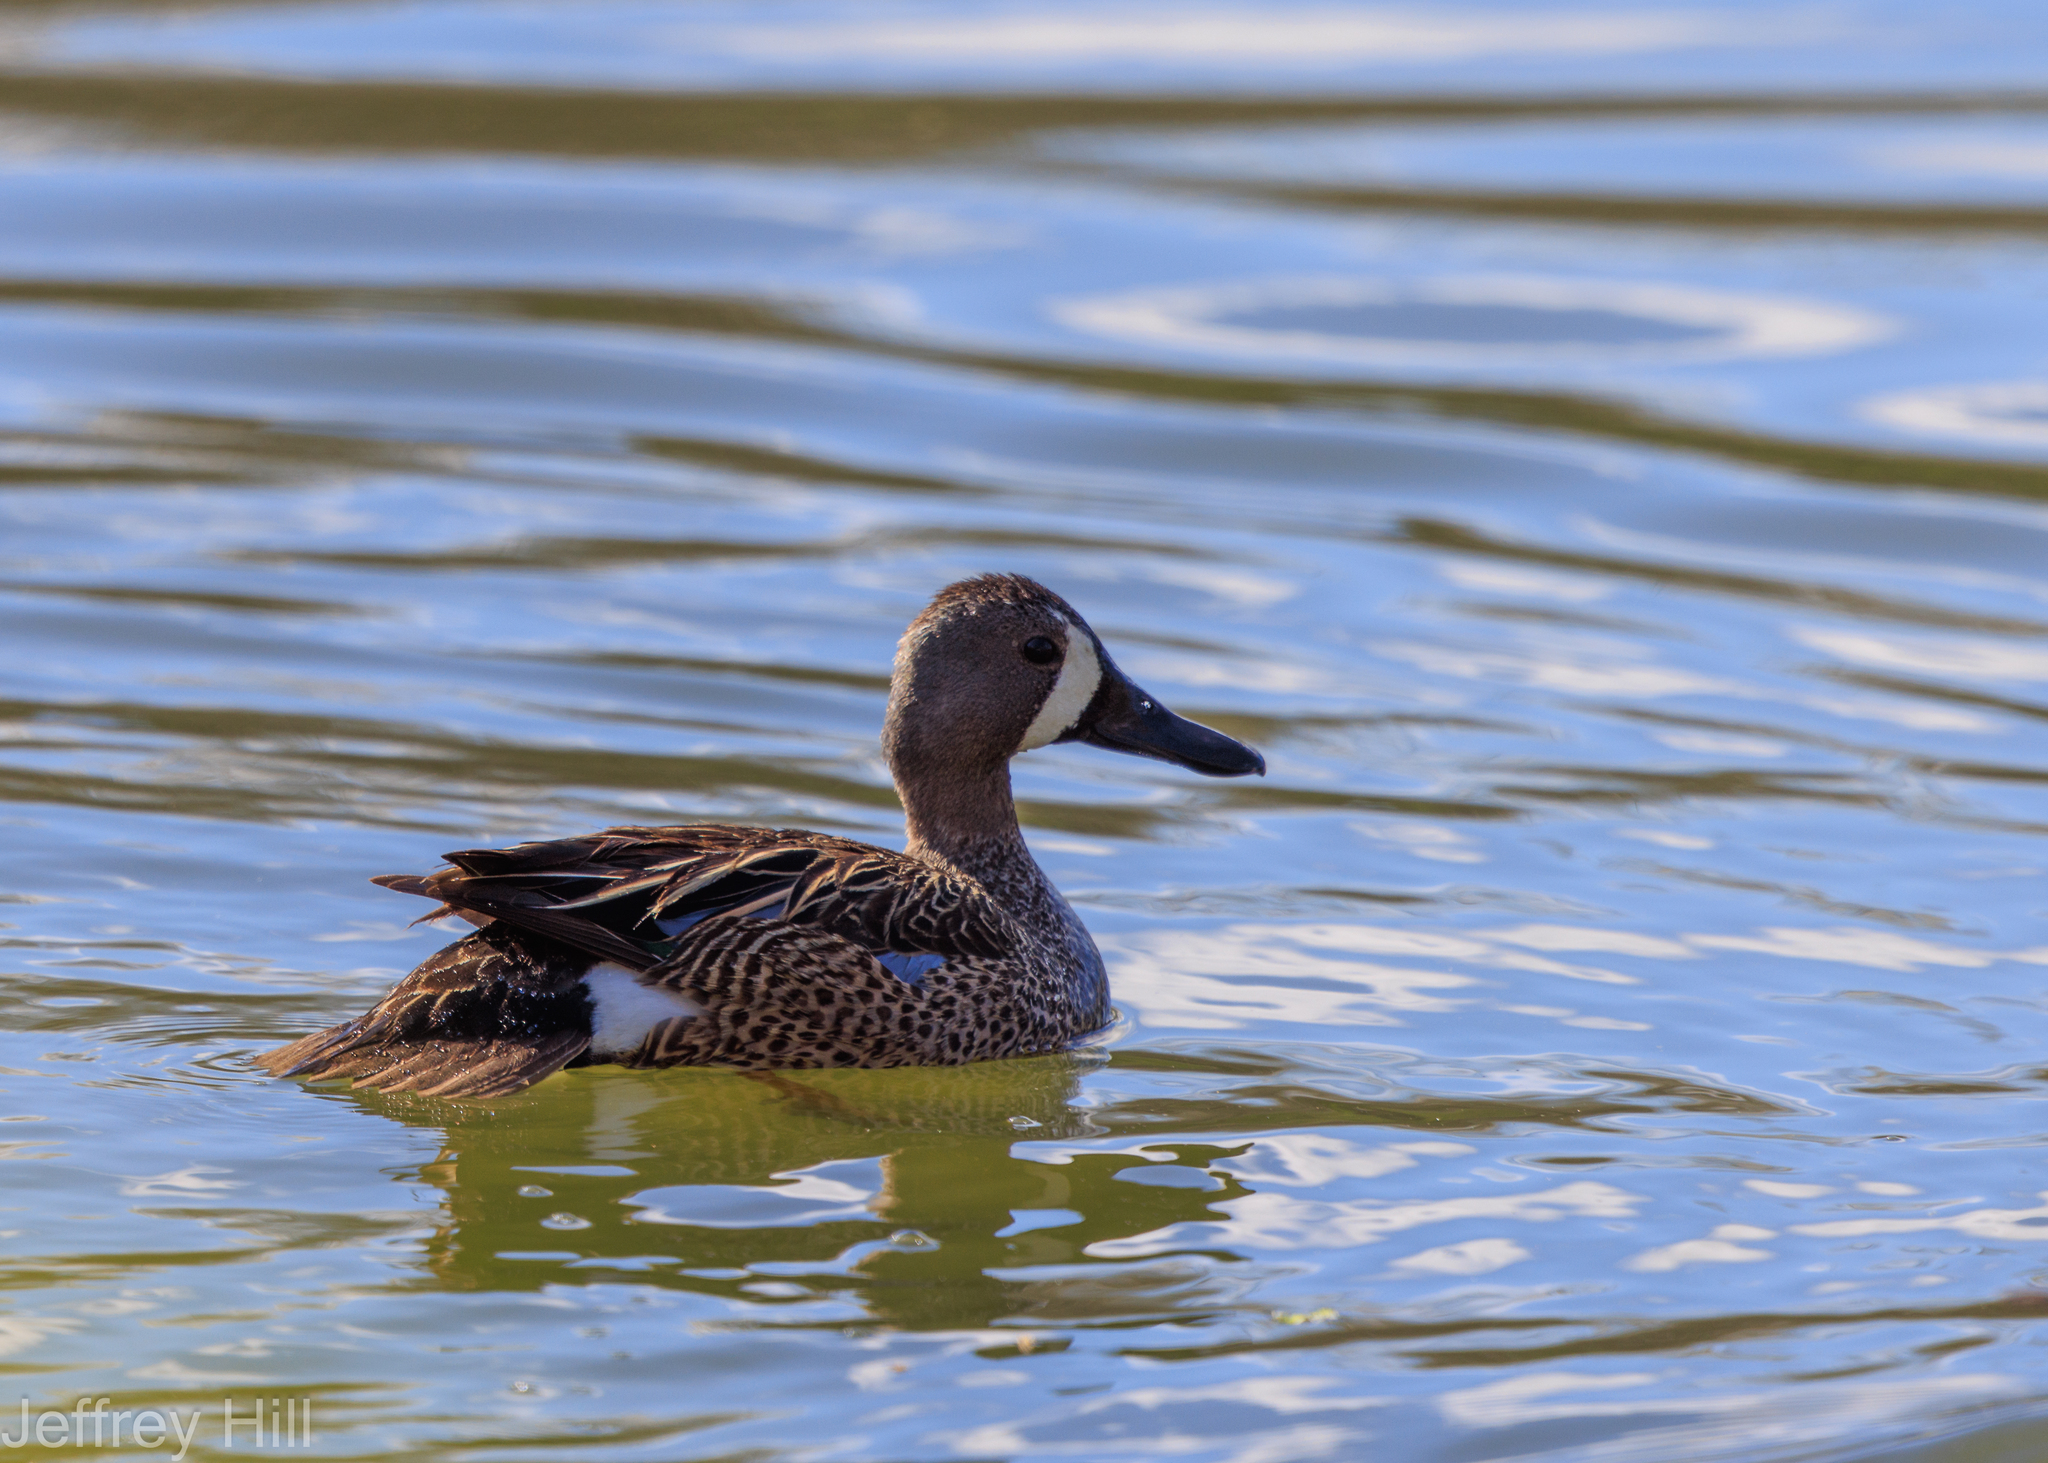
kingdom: Animalia
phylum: Chordata
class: Aves
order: Anseriformes
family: Anatidae
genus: Spatula
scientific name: Spatula discors
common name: Blue-winged teal
